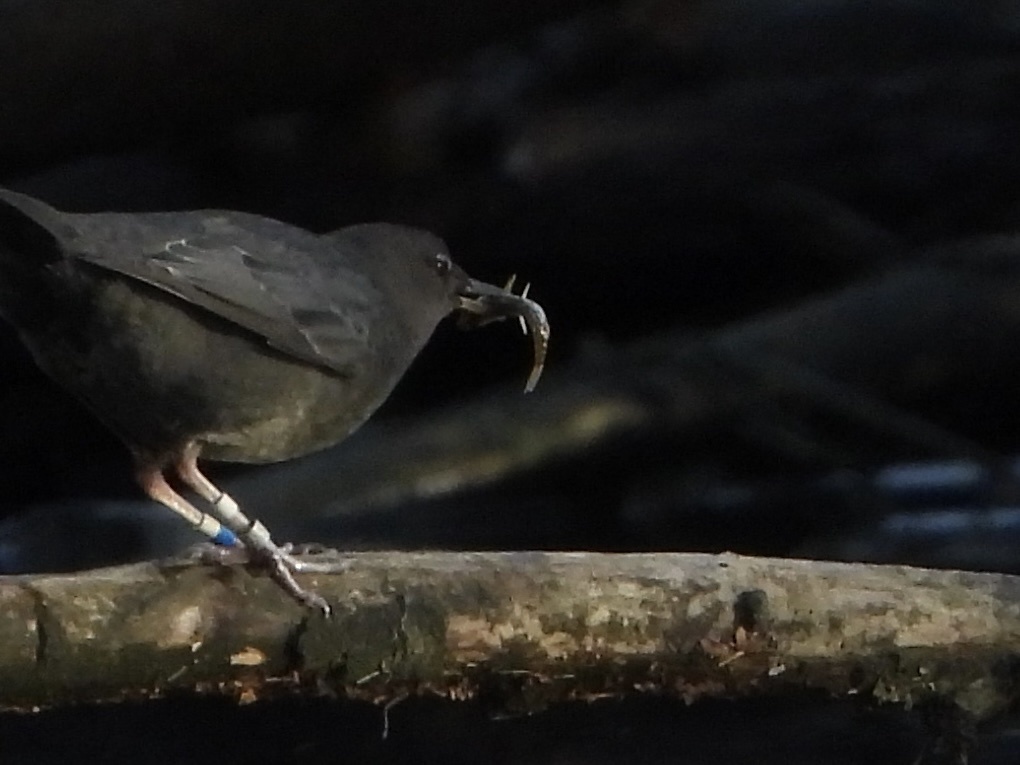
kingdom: Animalia
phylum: Chordata
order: Gasterosteiformes
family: Gasterosteidae
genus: Gasterosteus
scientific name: Gasterosteus aculeatus
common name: Three-spined stickleback
